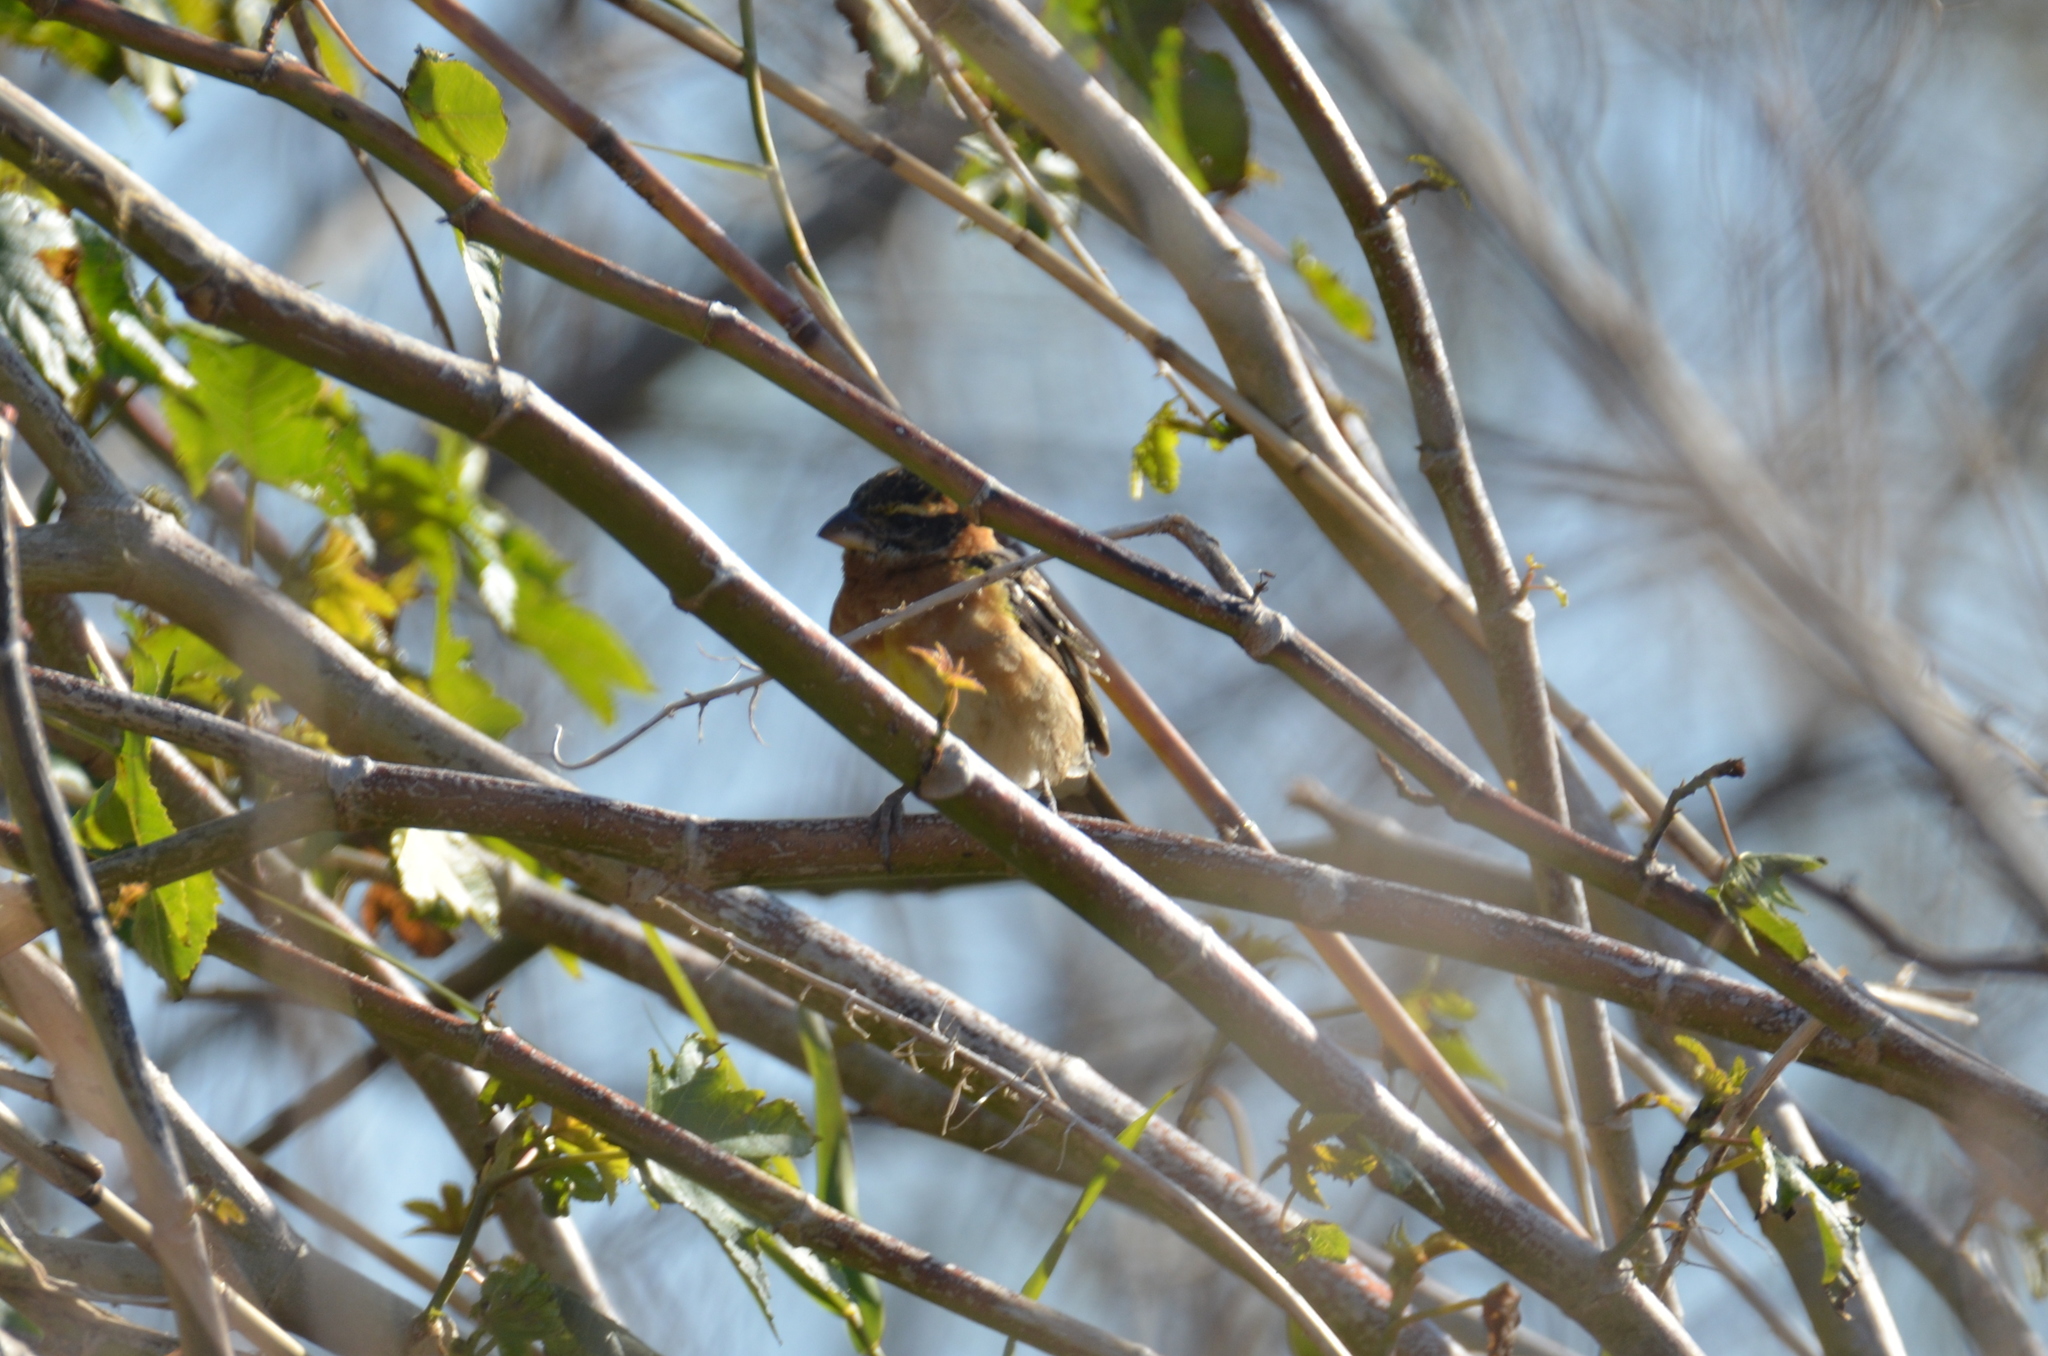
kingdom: Animalia
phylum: Chordata
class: Aves
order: Passeriformes
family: Cardinalidae
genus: Pheucticus
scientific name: Pheucticus melanocephalus
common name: Black-headed grosbeak
